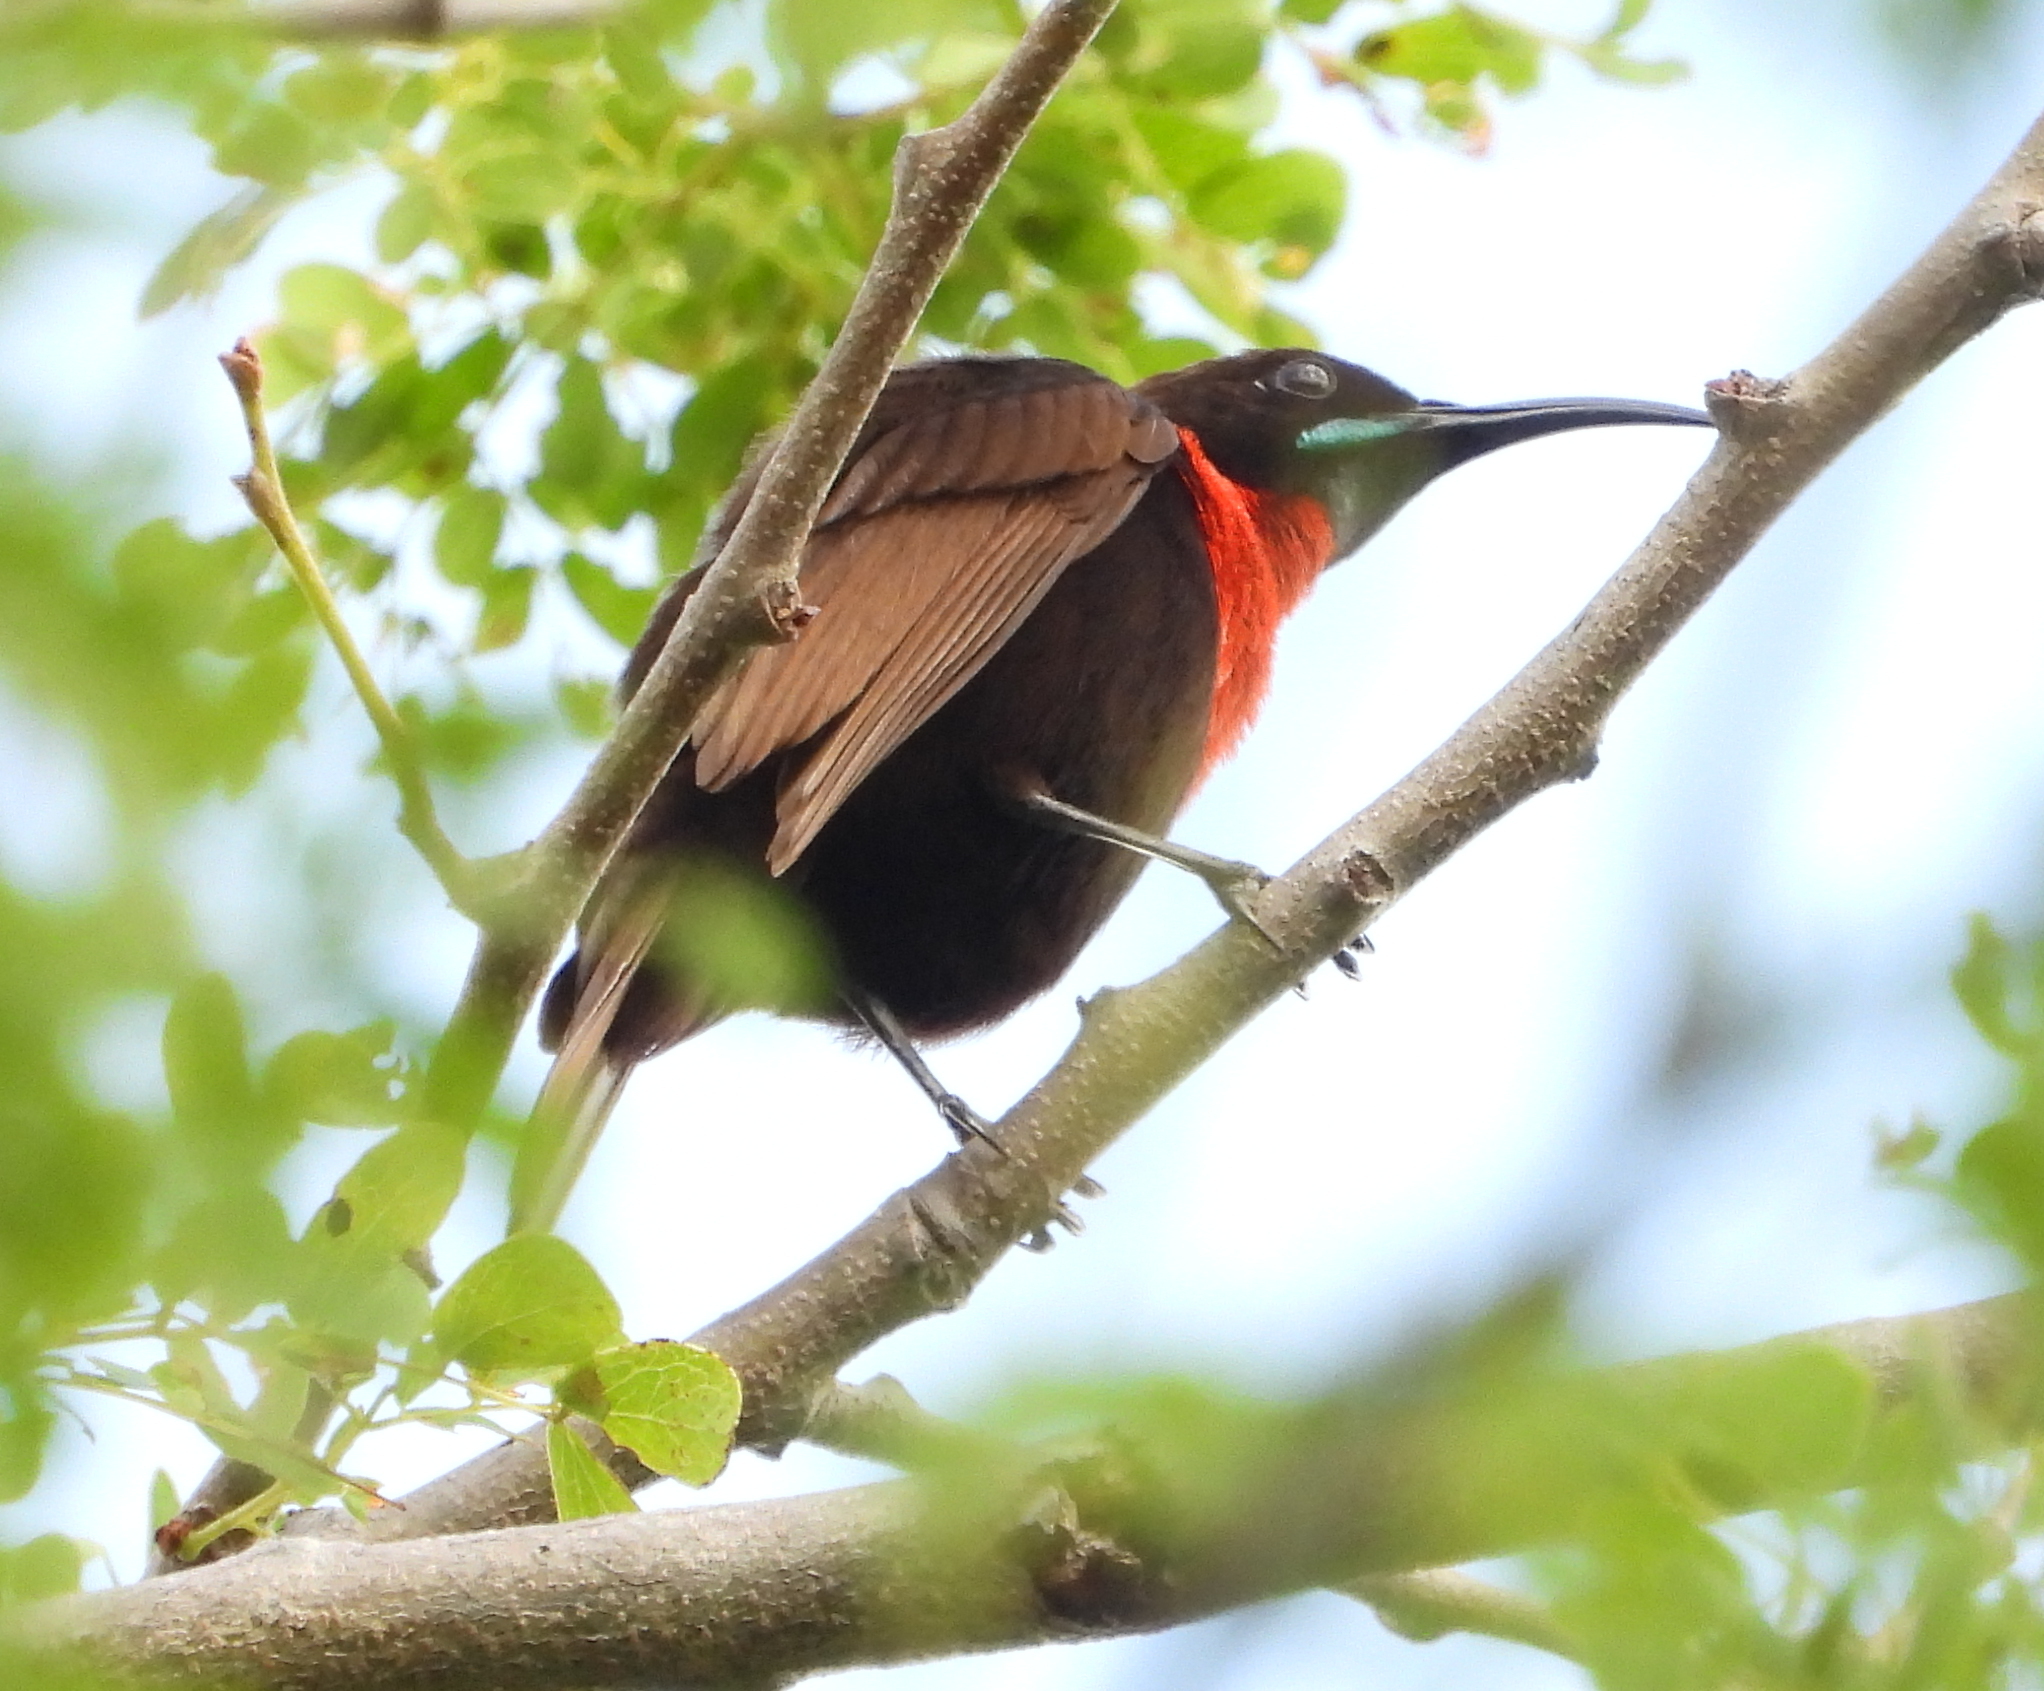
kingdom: Animalia
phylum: Chordata
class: Aves
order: Passeriformes
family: Nectariniidae
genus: Chalcomitra
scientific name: Chalcomitra senegalensis
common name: Scarlet-chested sunbird
